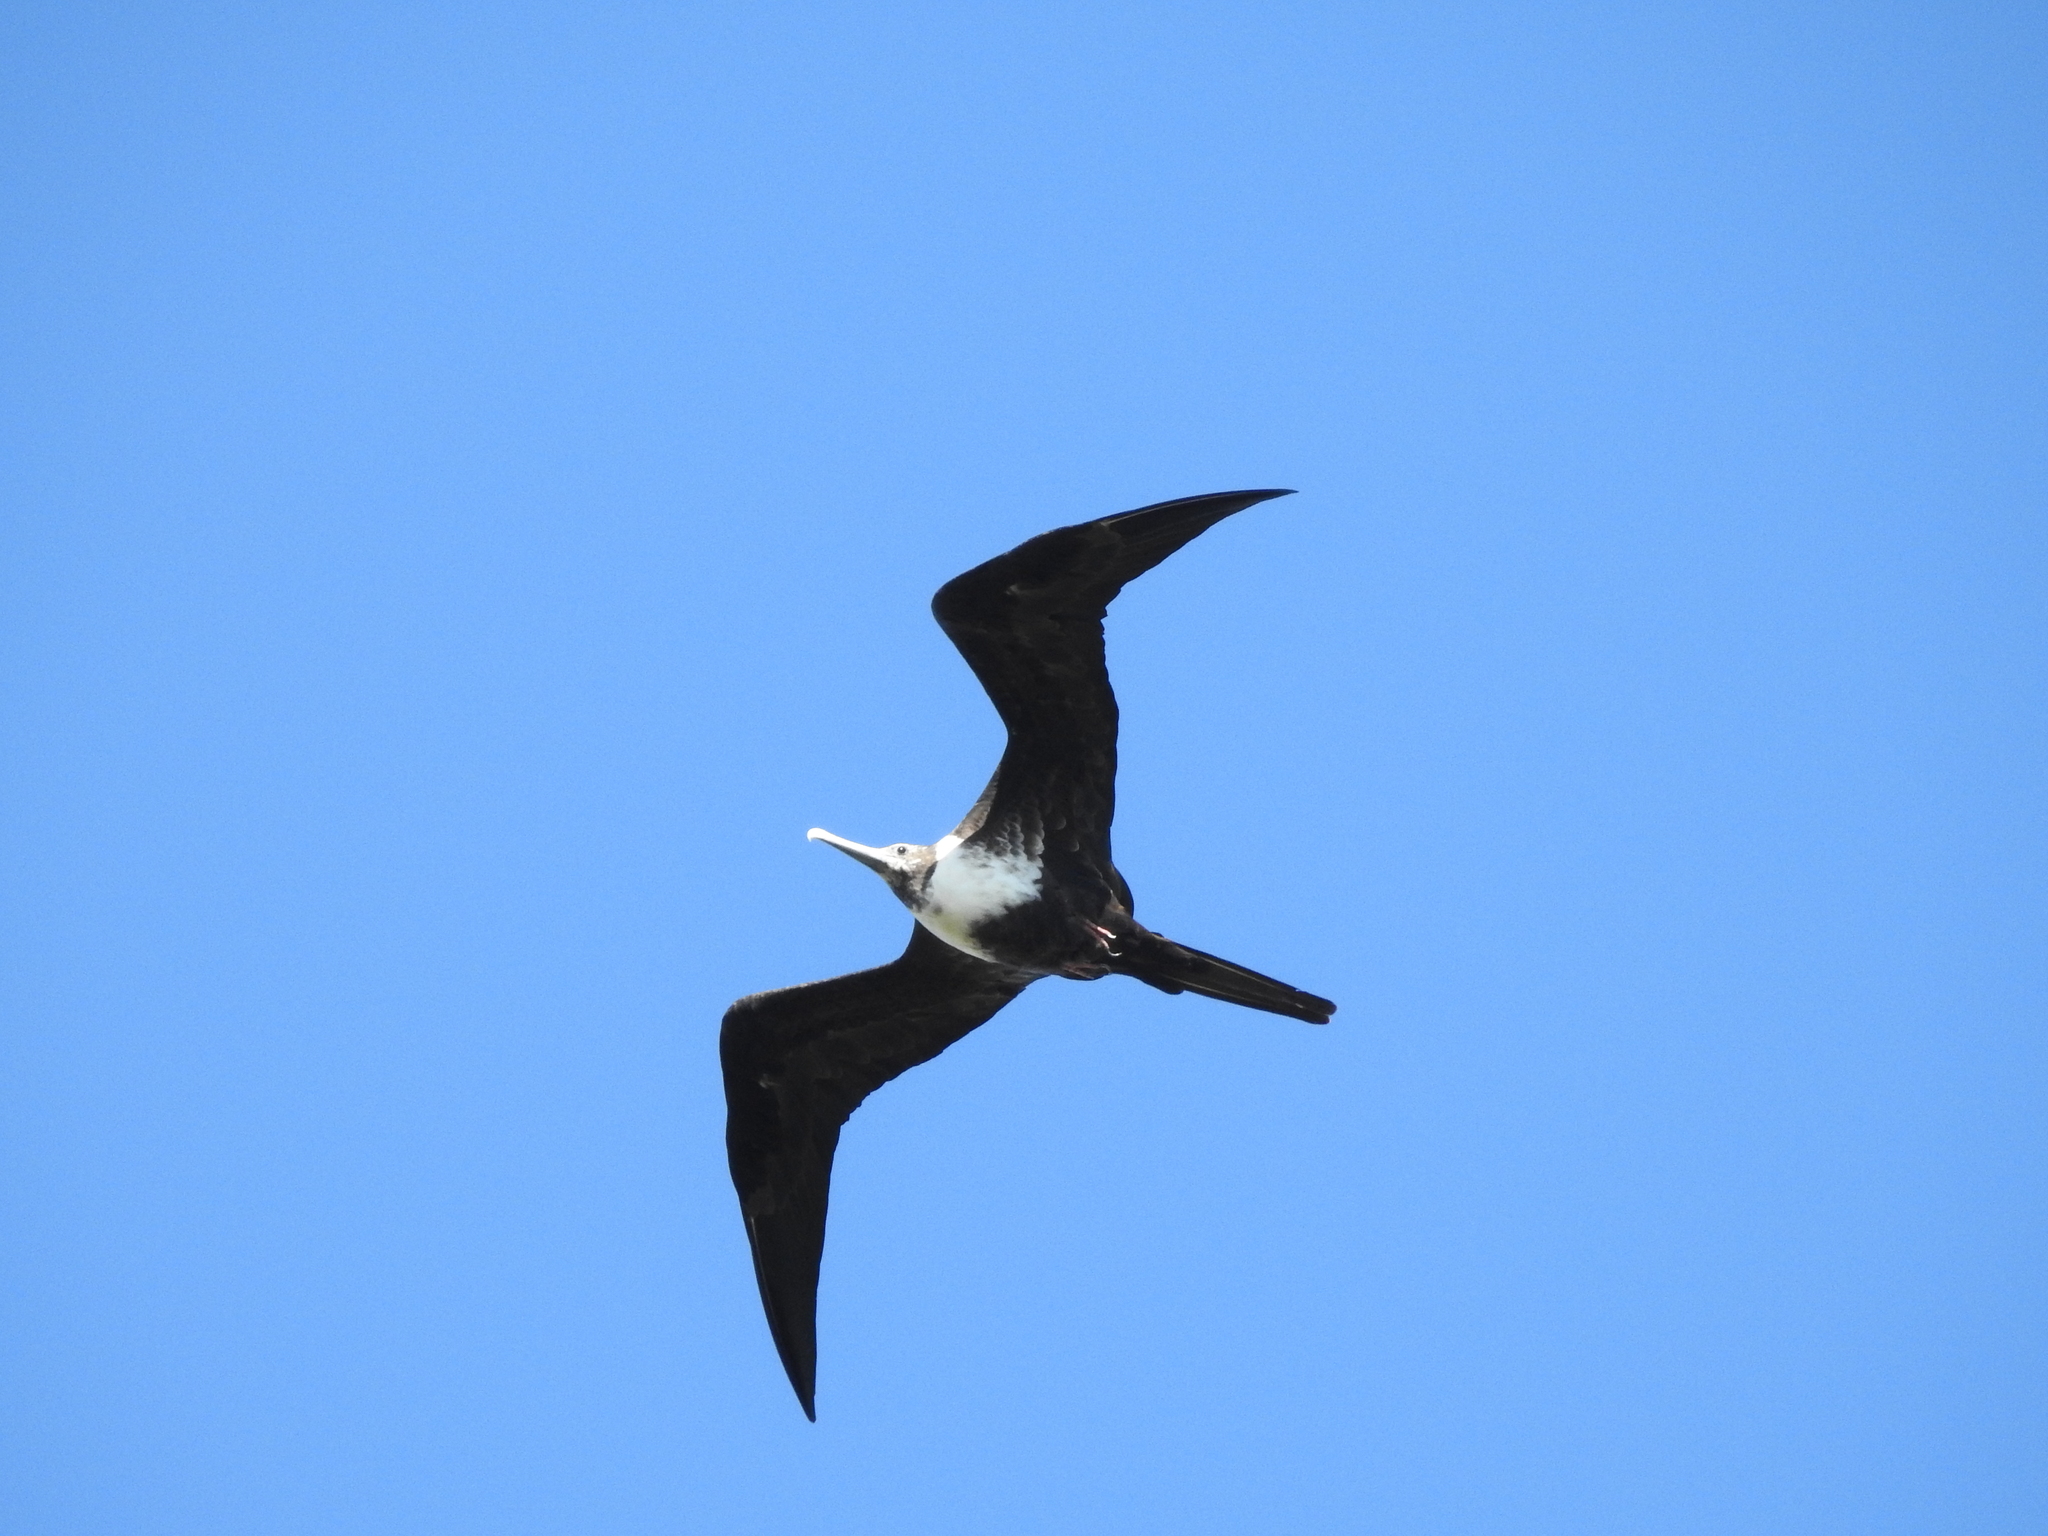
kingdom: Animalia
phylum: Chordata
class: Aves
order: Suliformes
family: Fregatidae
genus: Fregata
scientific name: Fregata magnificens
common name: Magnificent frigatebird
